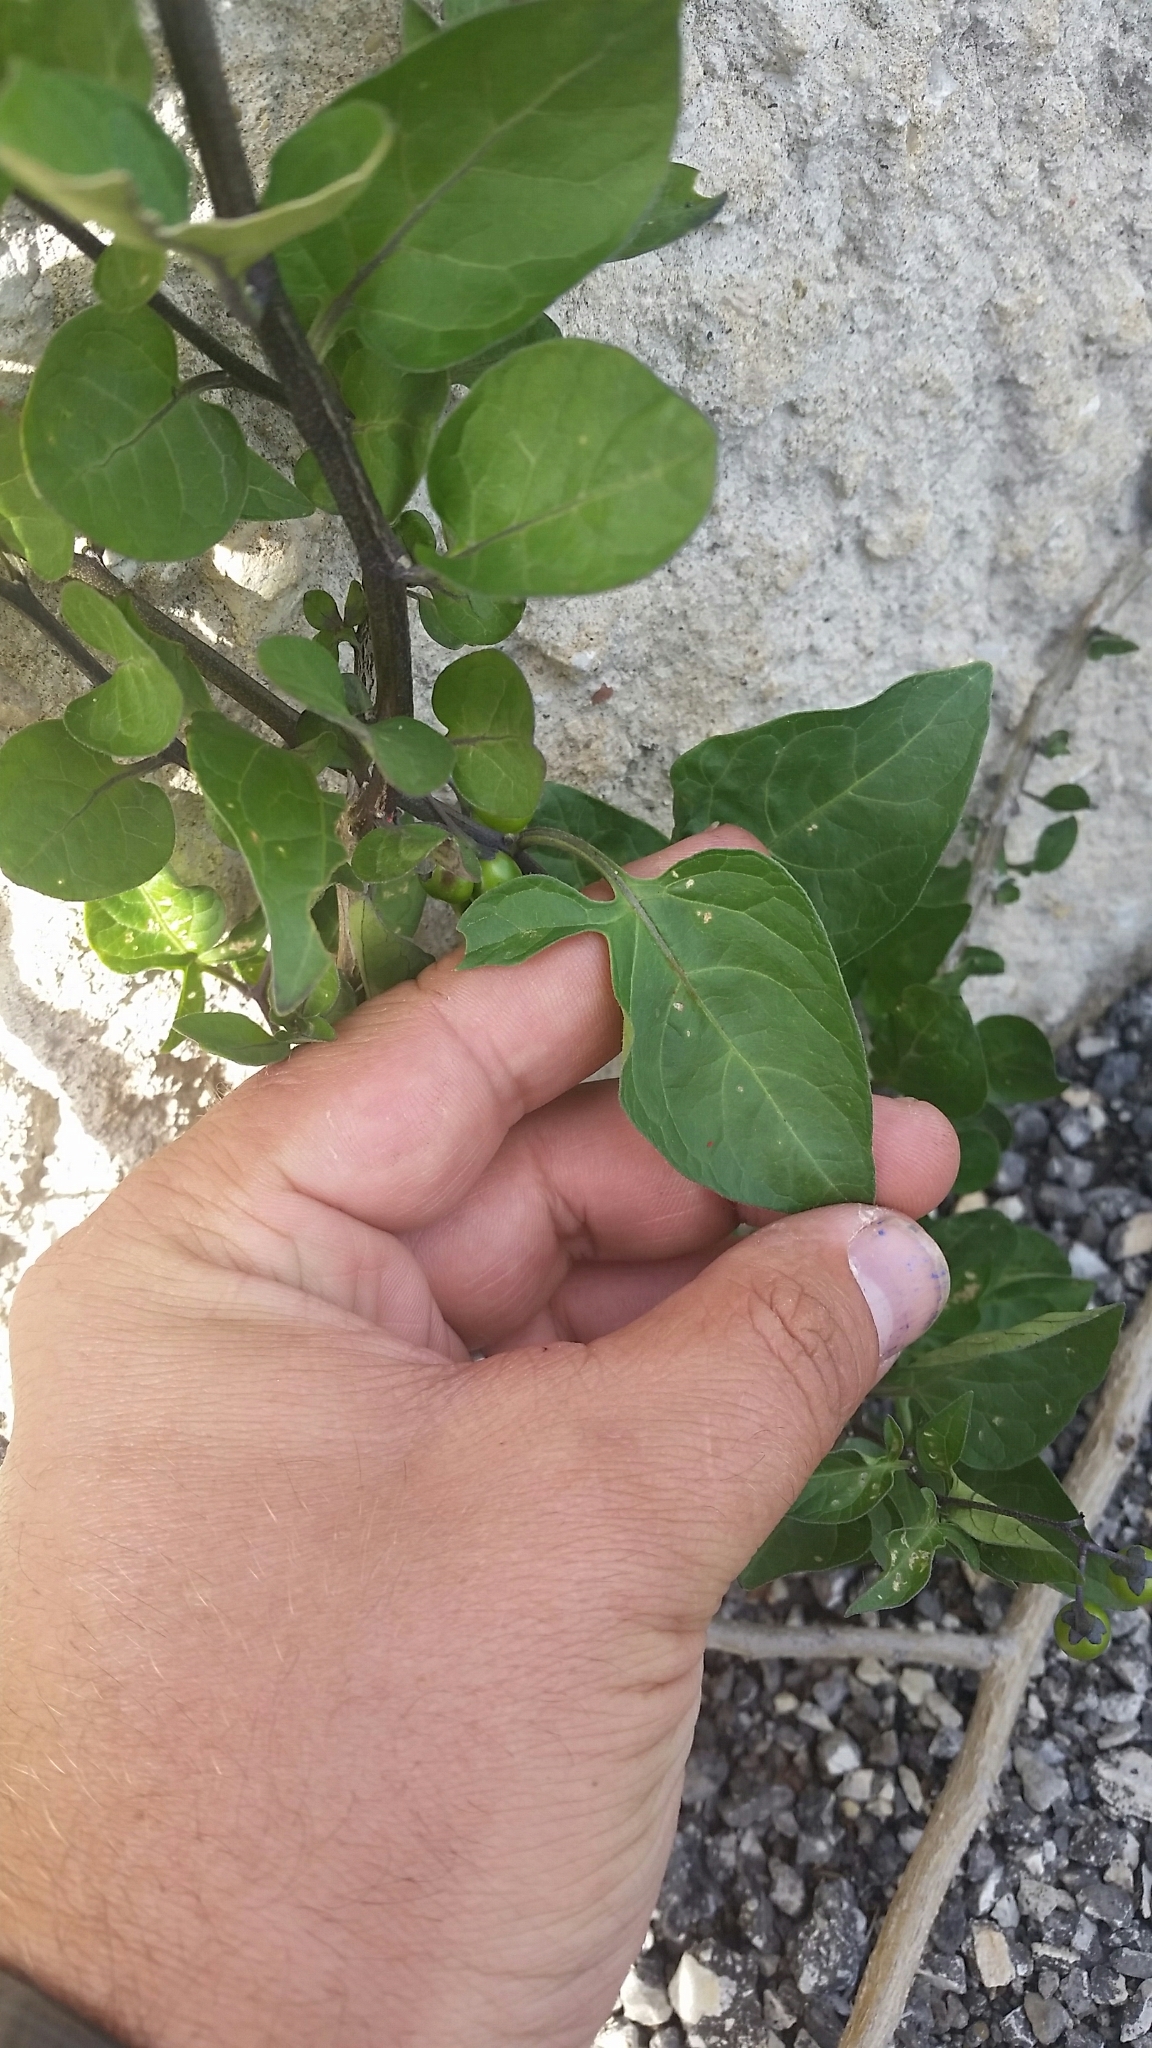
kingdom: Plantae
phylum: Tracheophyta
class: Magnoliopsida
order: Solanales
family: Solanaceae
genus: Solanum
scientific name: Solanum dulcamara
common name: Climbing nightshade
